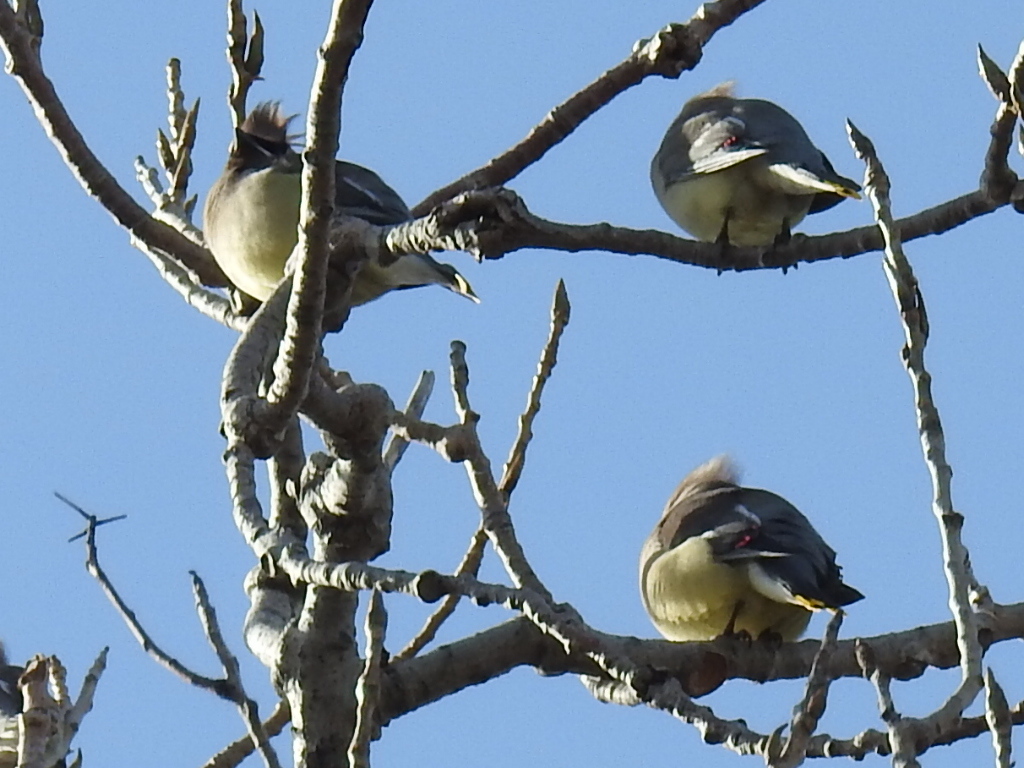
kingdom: Animalia
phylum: Chordata
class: Aves
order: Passeriformes
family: Bombycillidae
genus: Bombycilla
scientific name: Bombycilla cedrorum
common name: Cedar waxwing
